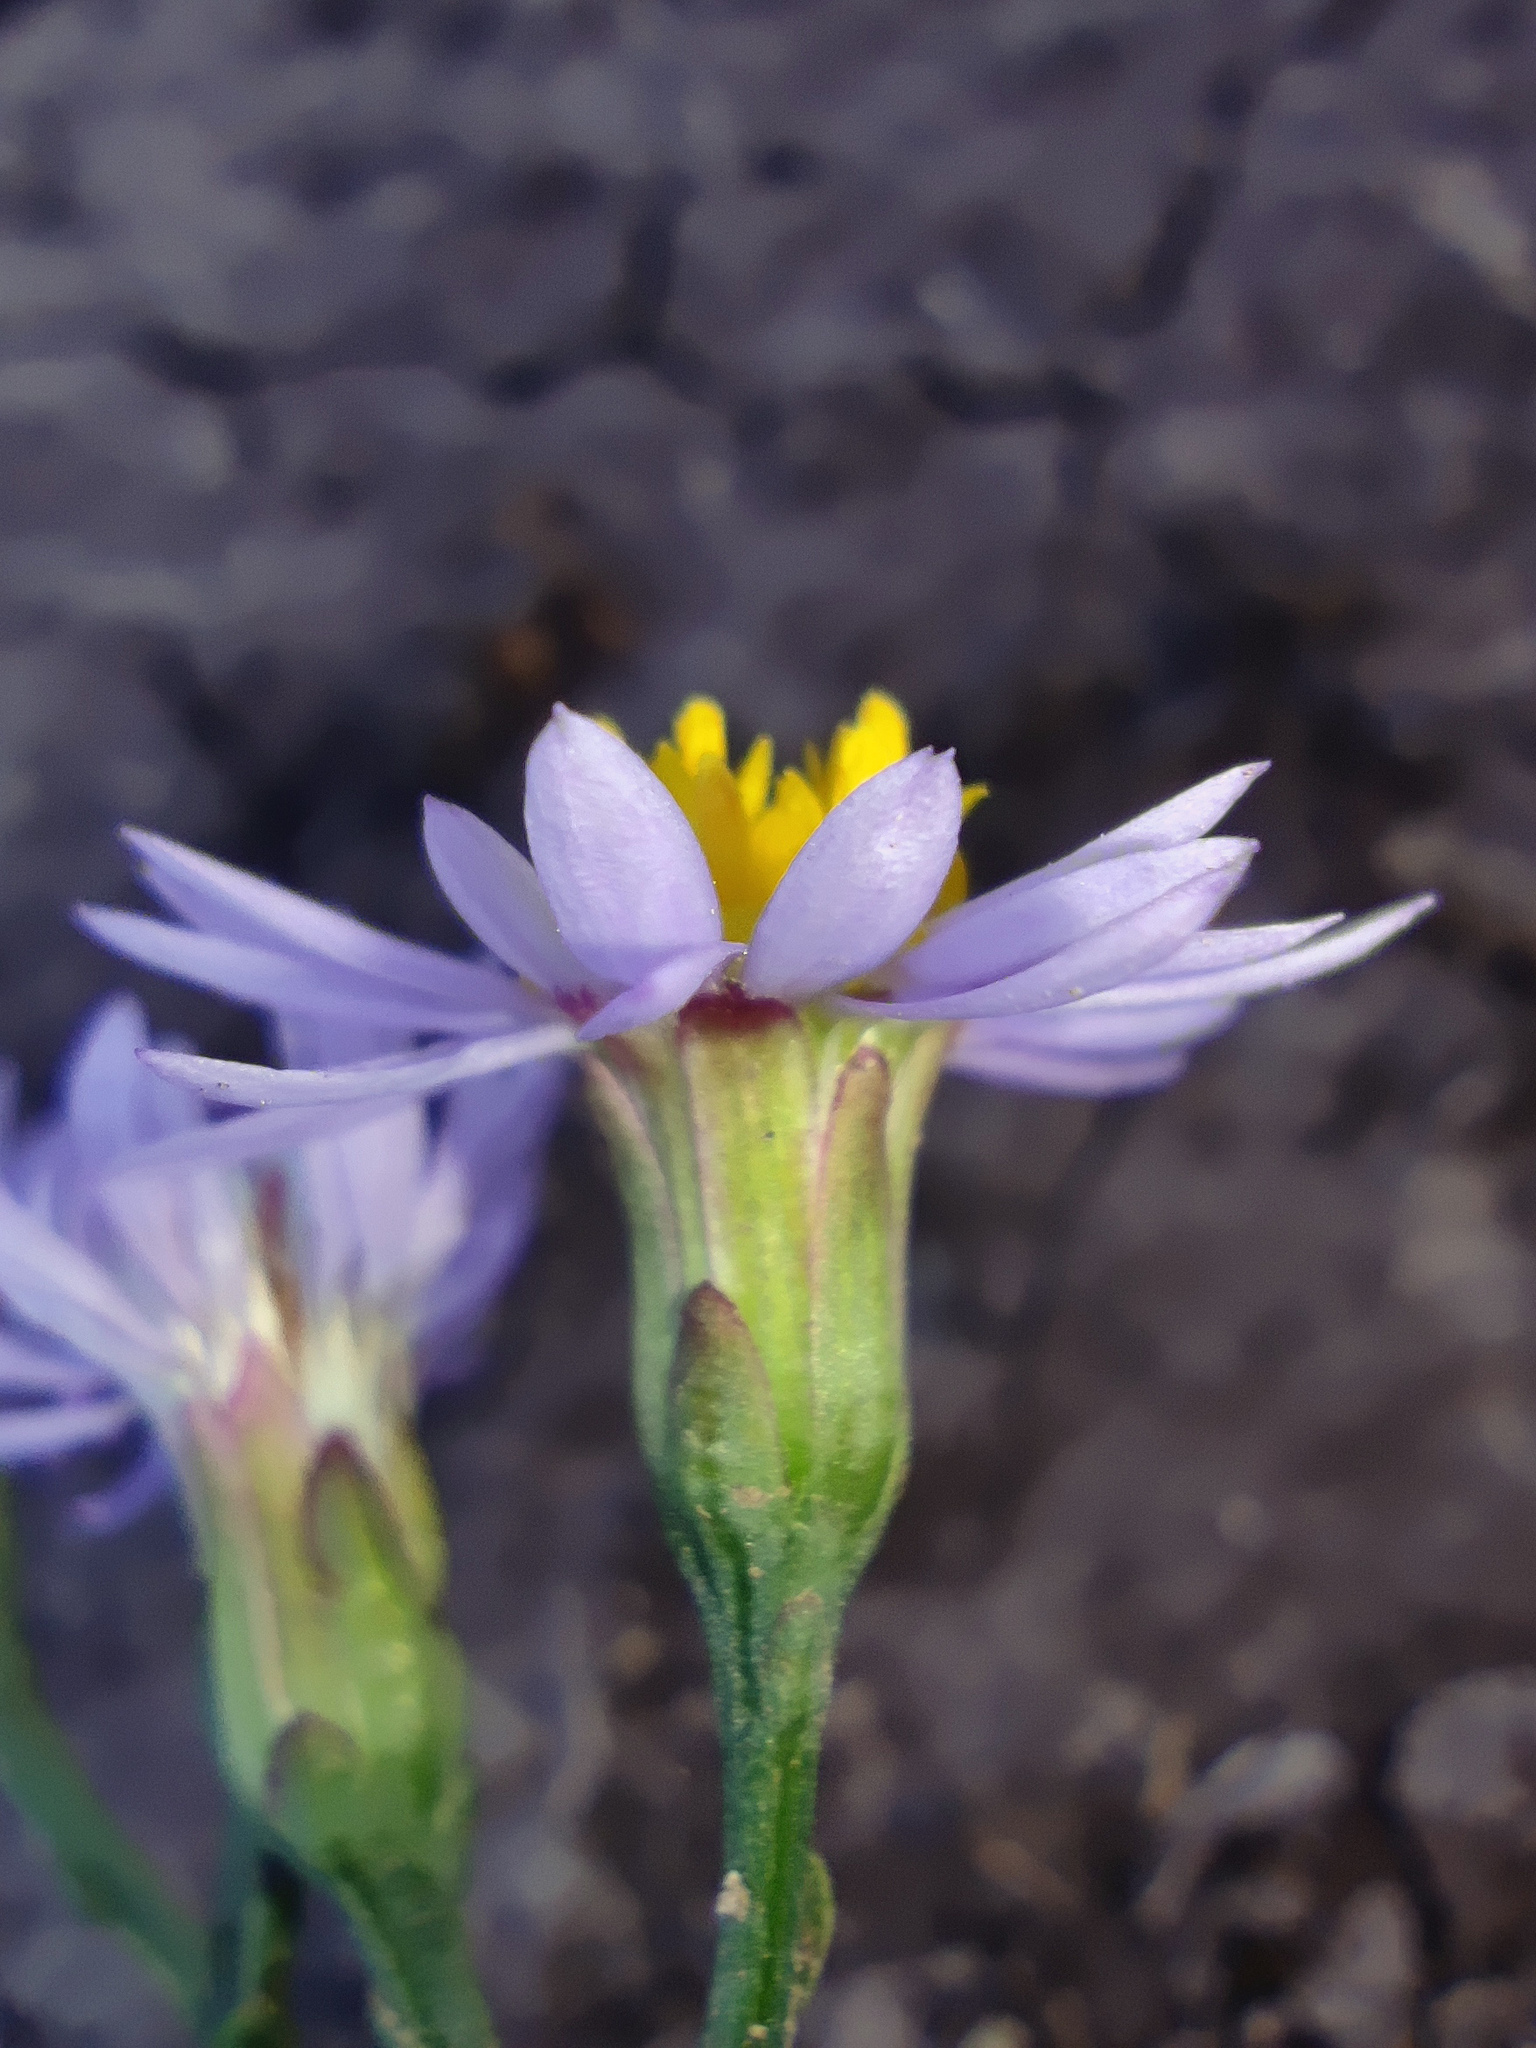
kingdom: Plantae
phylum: Tracheophyta
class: Magnoliopsida
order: Asterales
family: Asteraceae
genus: Tripolium
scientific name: Tripolium pannonicum
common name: Sea aster
